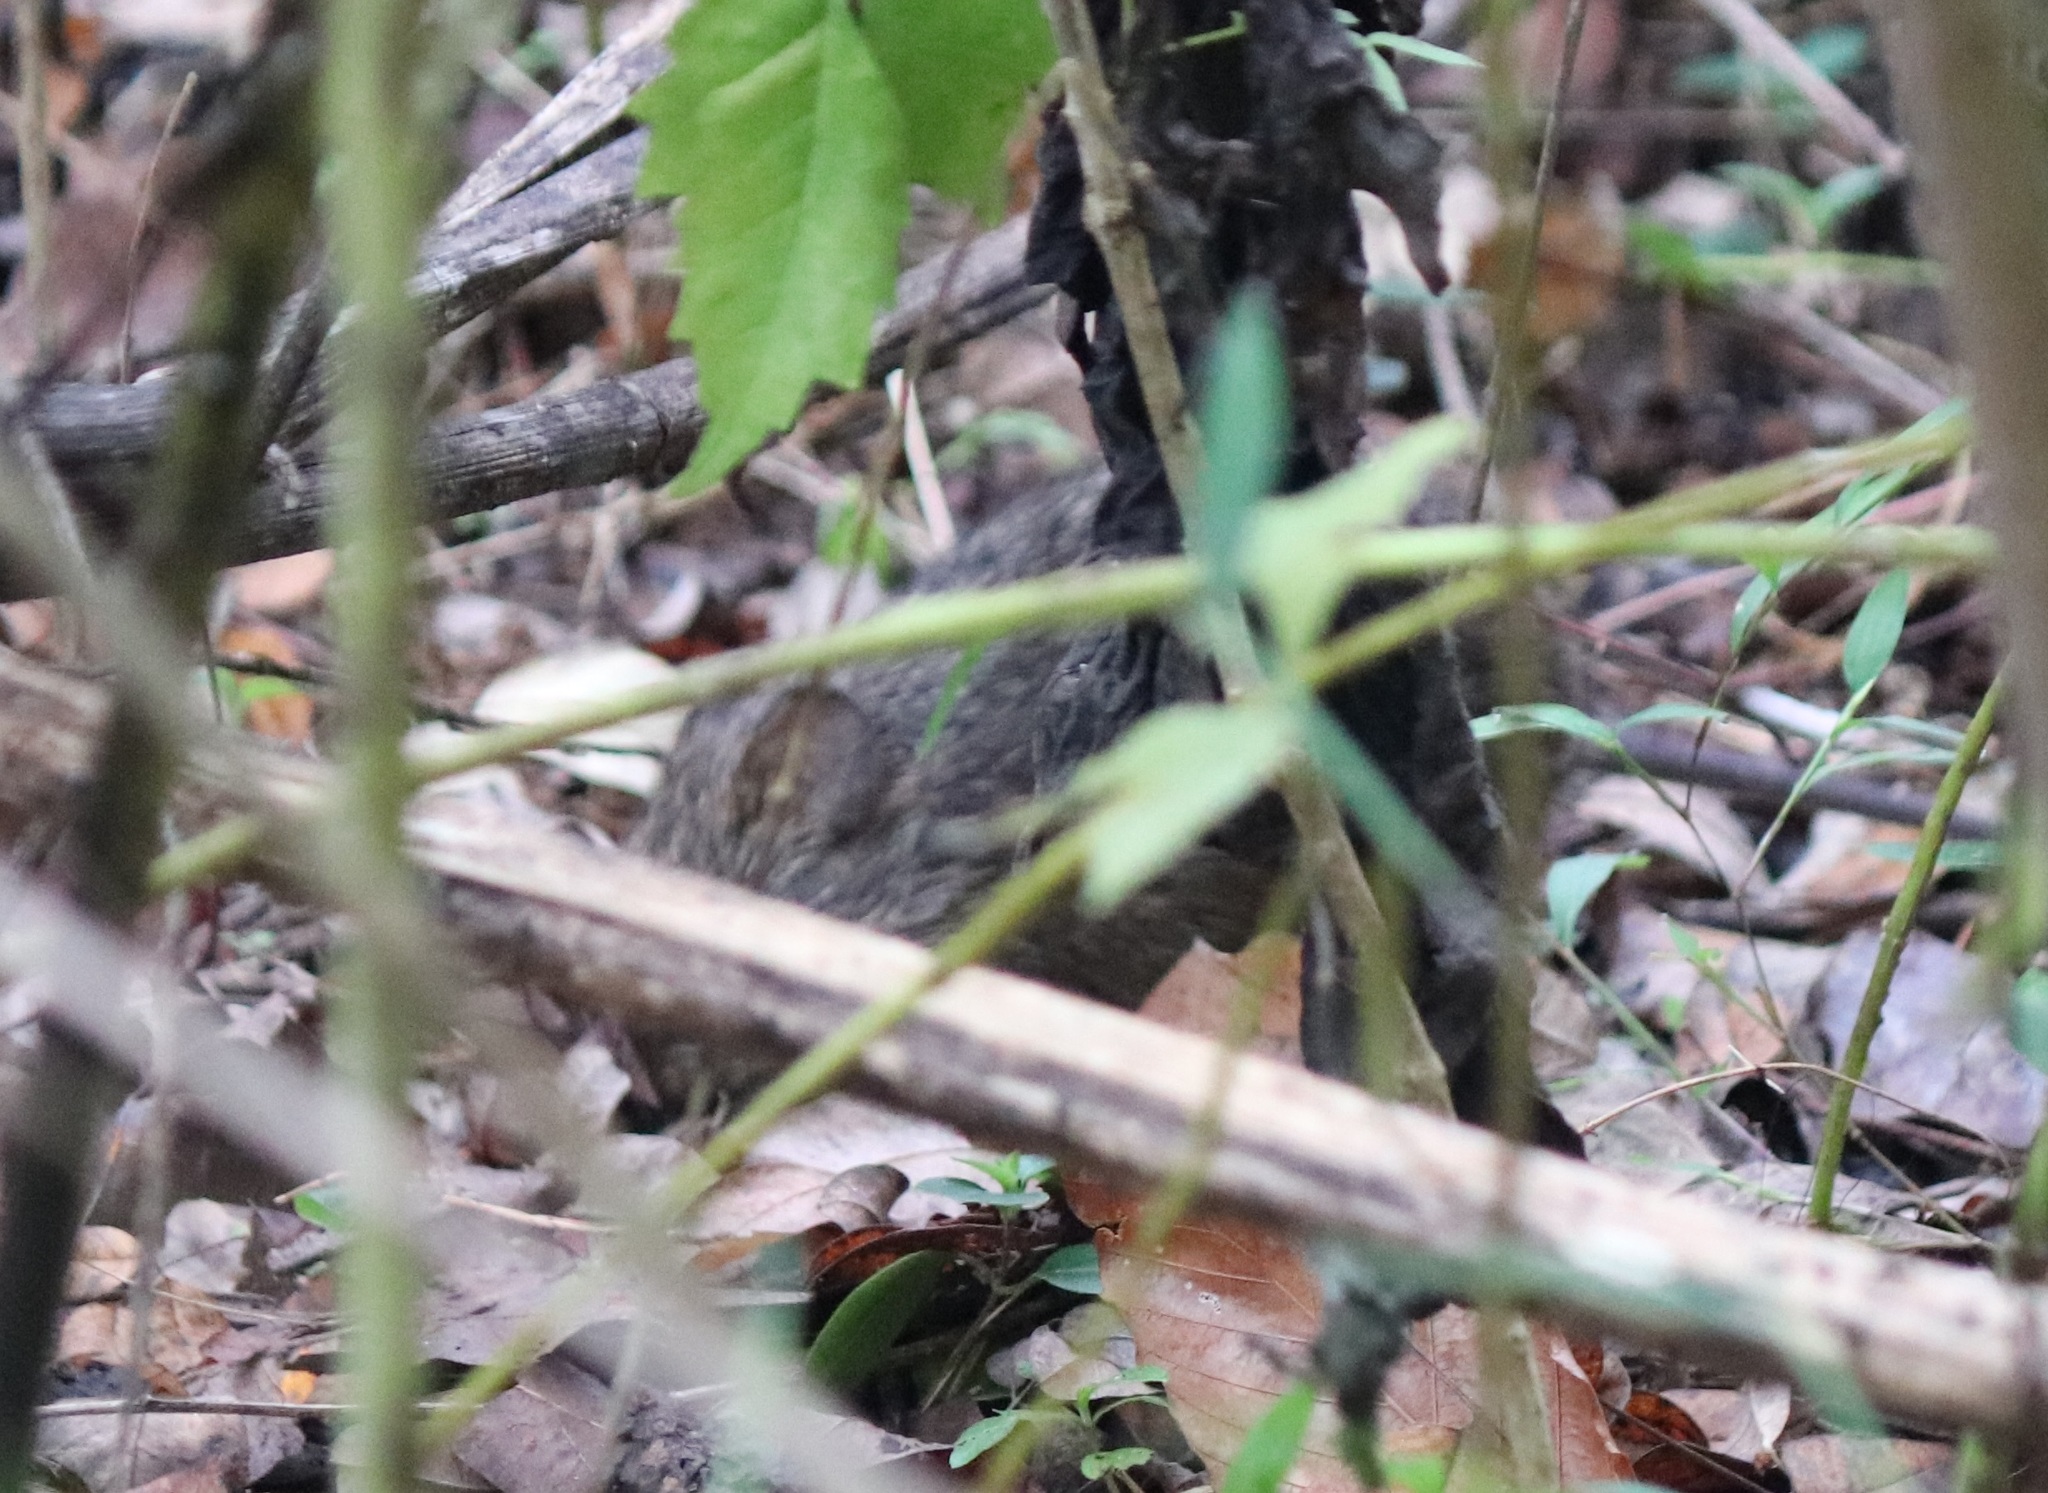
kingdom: Animalia
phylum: Chordata
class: Mammalia
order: Rodentia
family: Cricetidae
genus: Sigmodon
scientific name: Sigmodon hispidus
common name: Hispid cotton rat
